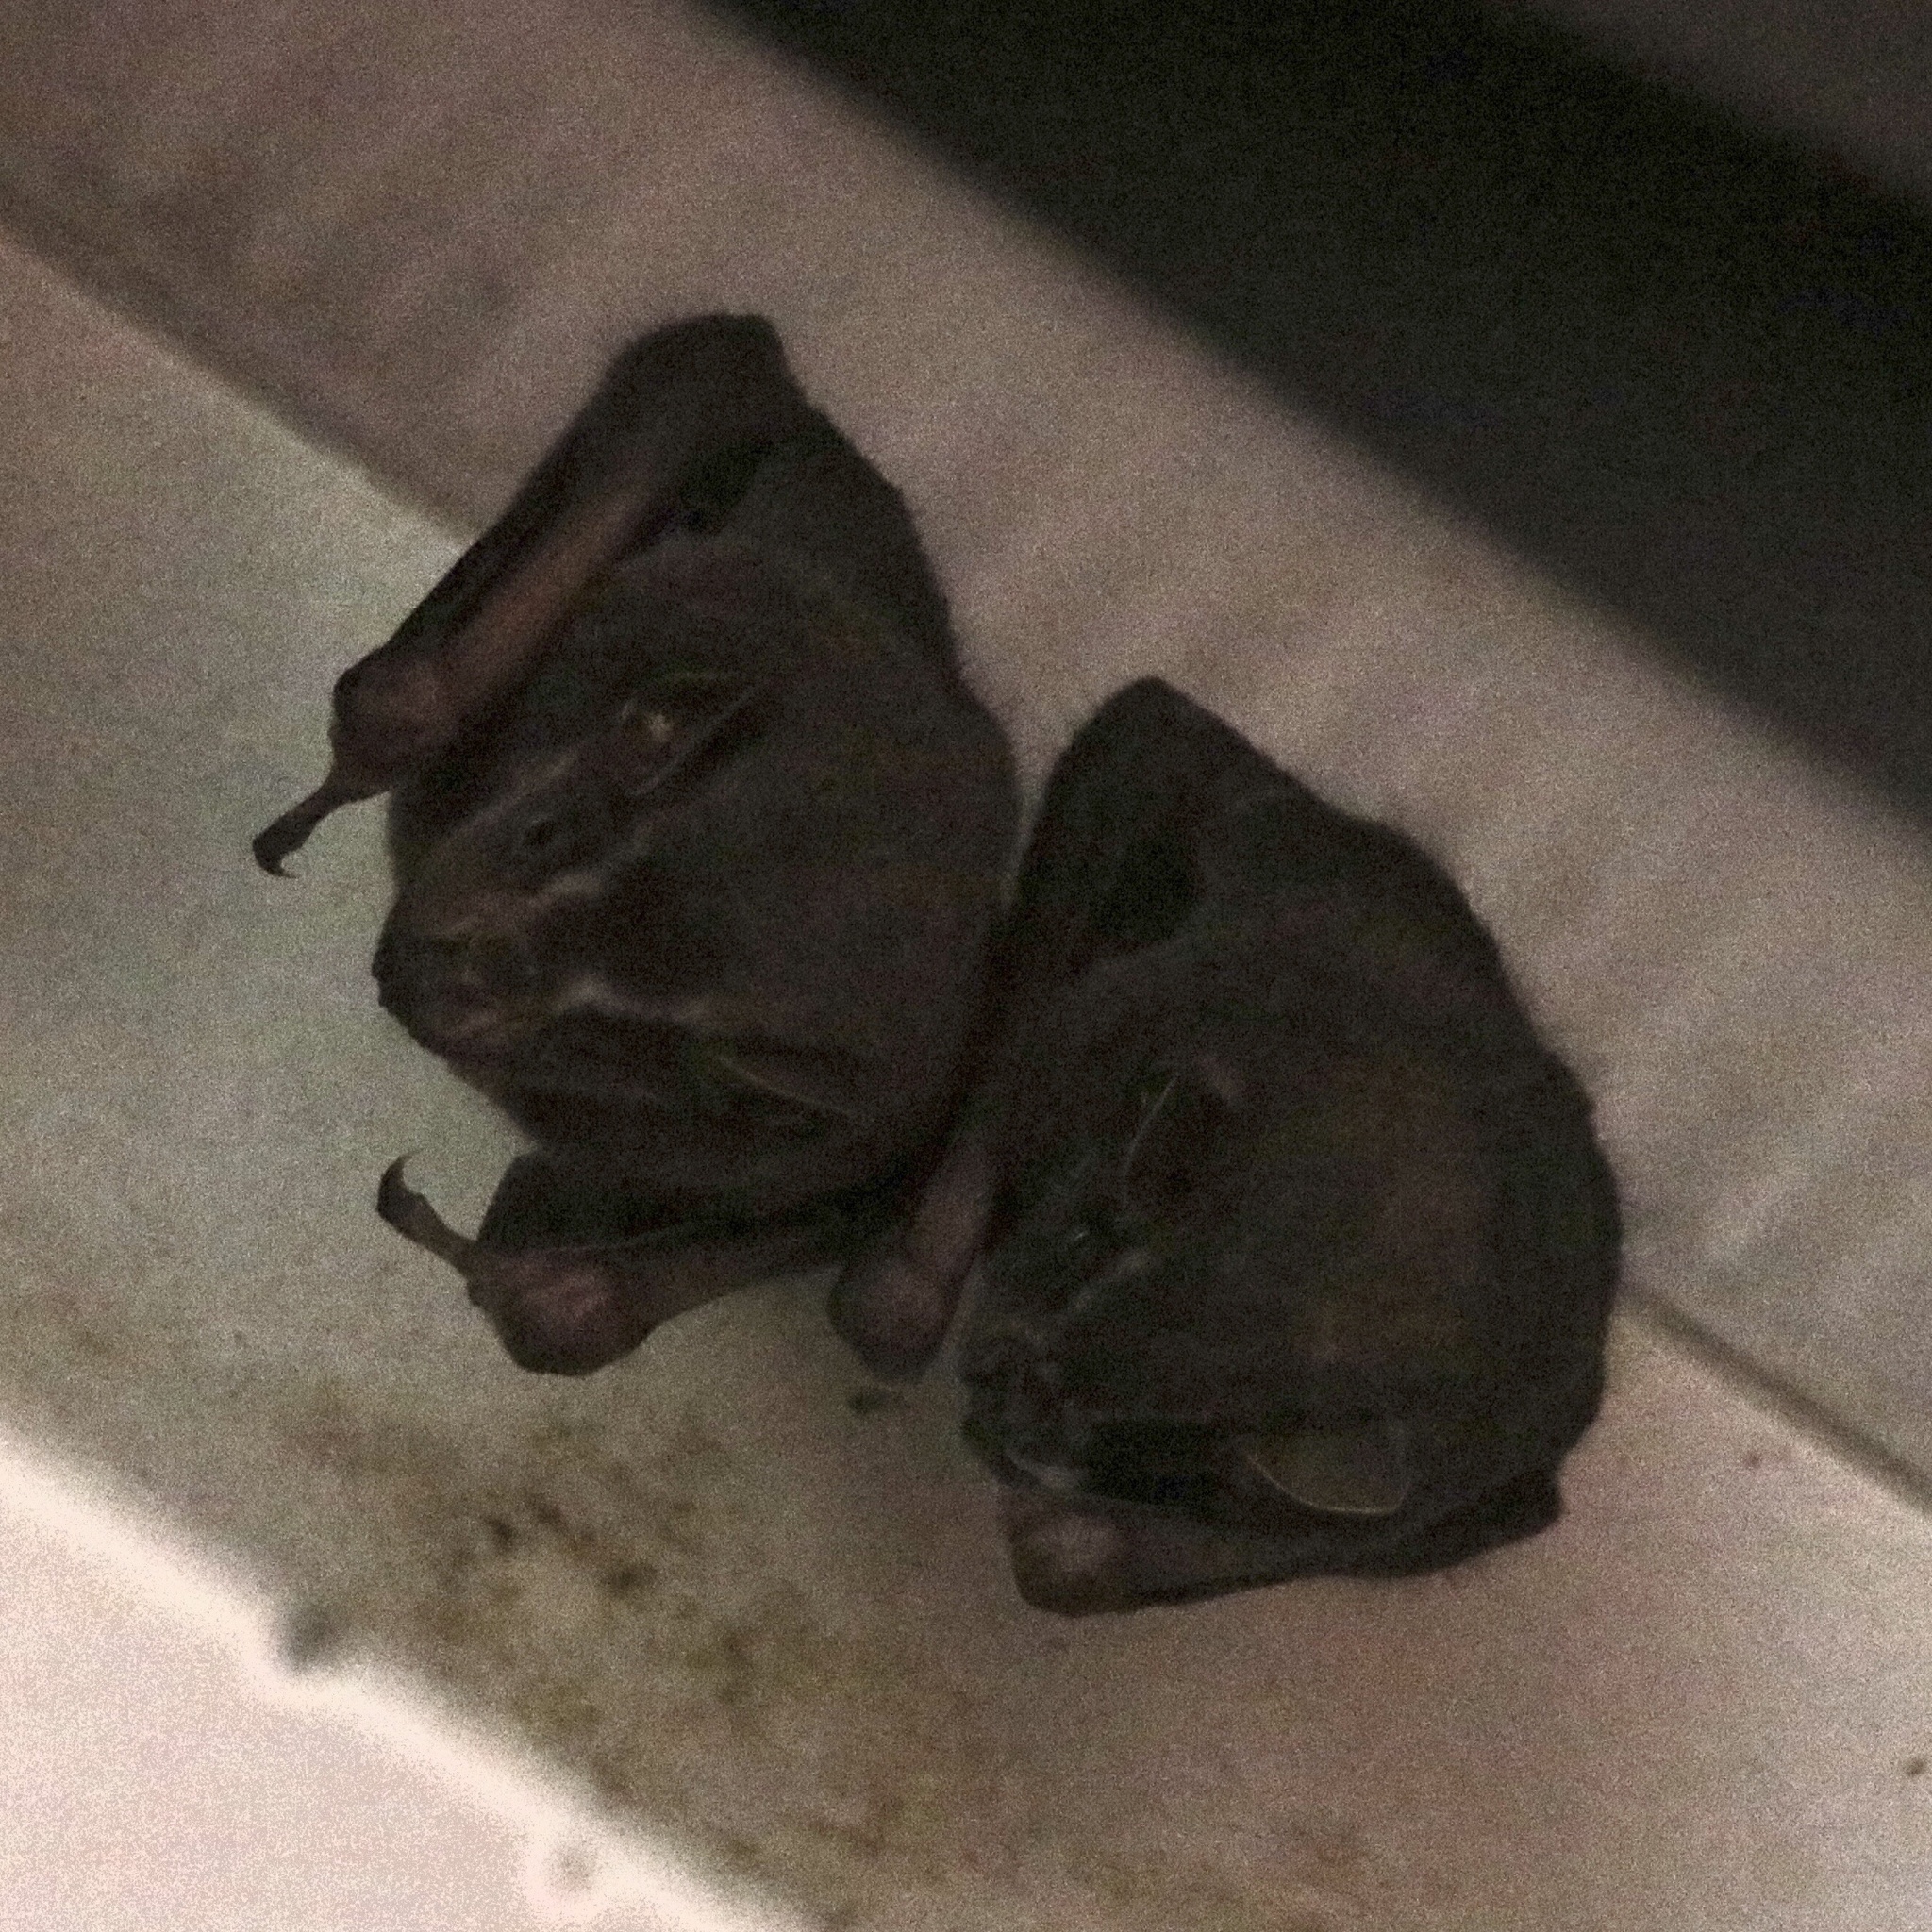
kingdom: Animalia
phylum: Chordata
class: Mammalia
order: Chiroptera
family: Phyllostomidae
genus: Artibeus
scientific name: Artibeus lituratus
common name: Great fruit-eating bat
